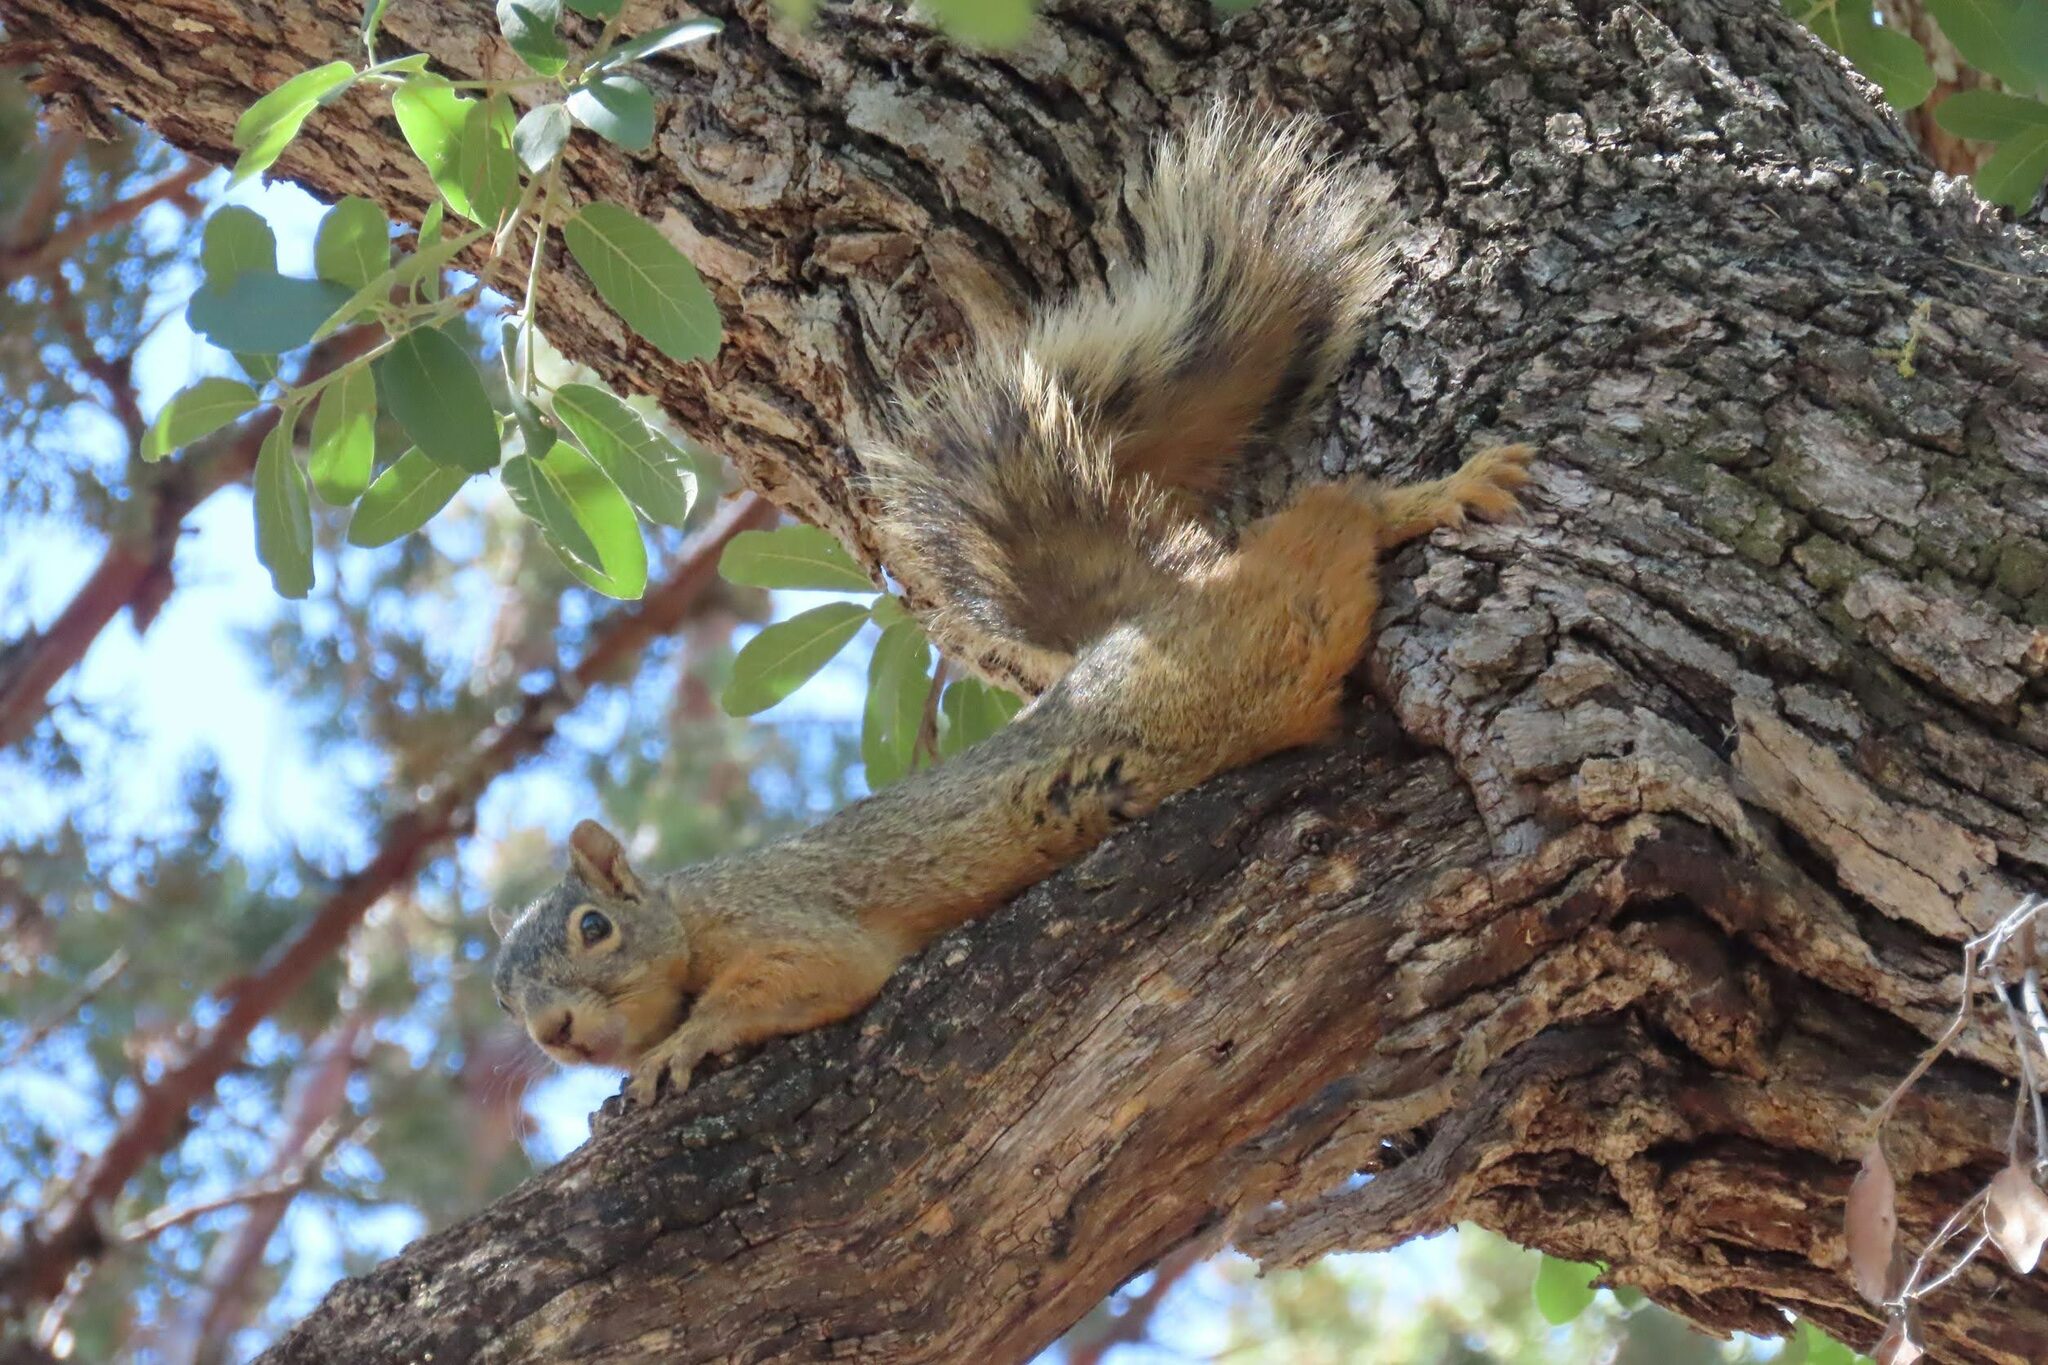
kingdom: Animalia
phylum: Chordata
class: Mammalia
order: Rodentia
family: Sciuridae
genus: Sciurus
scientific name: Sciurus nayaritensis
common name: Mexican fox squirrel
